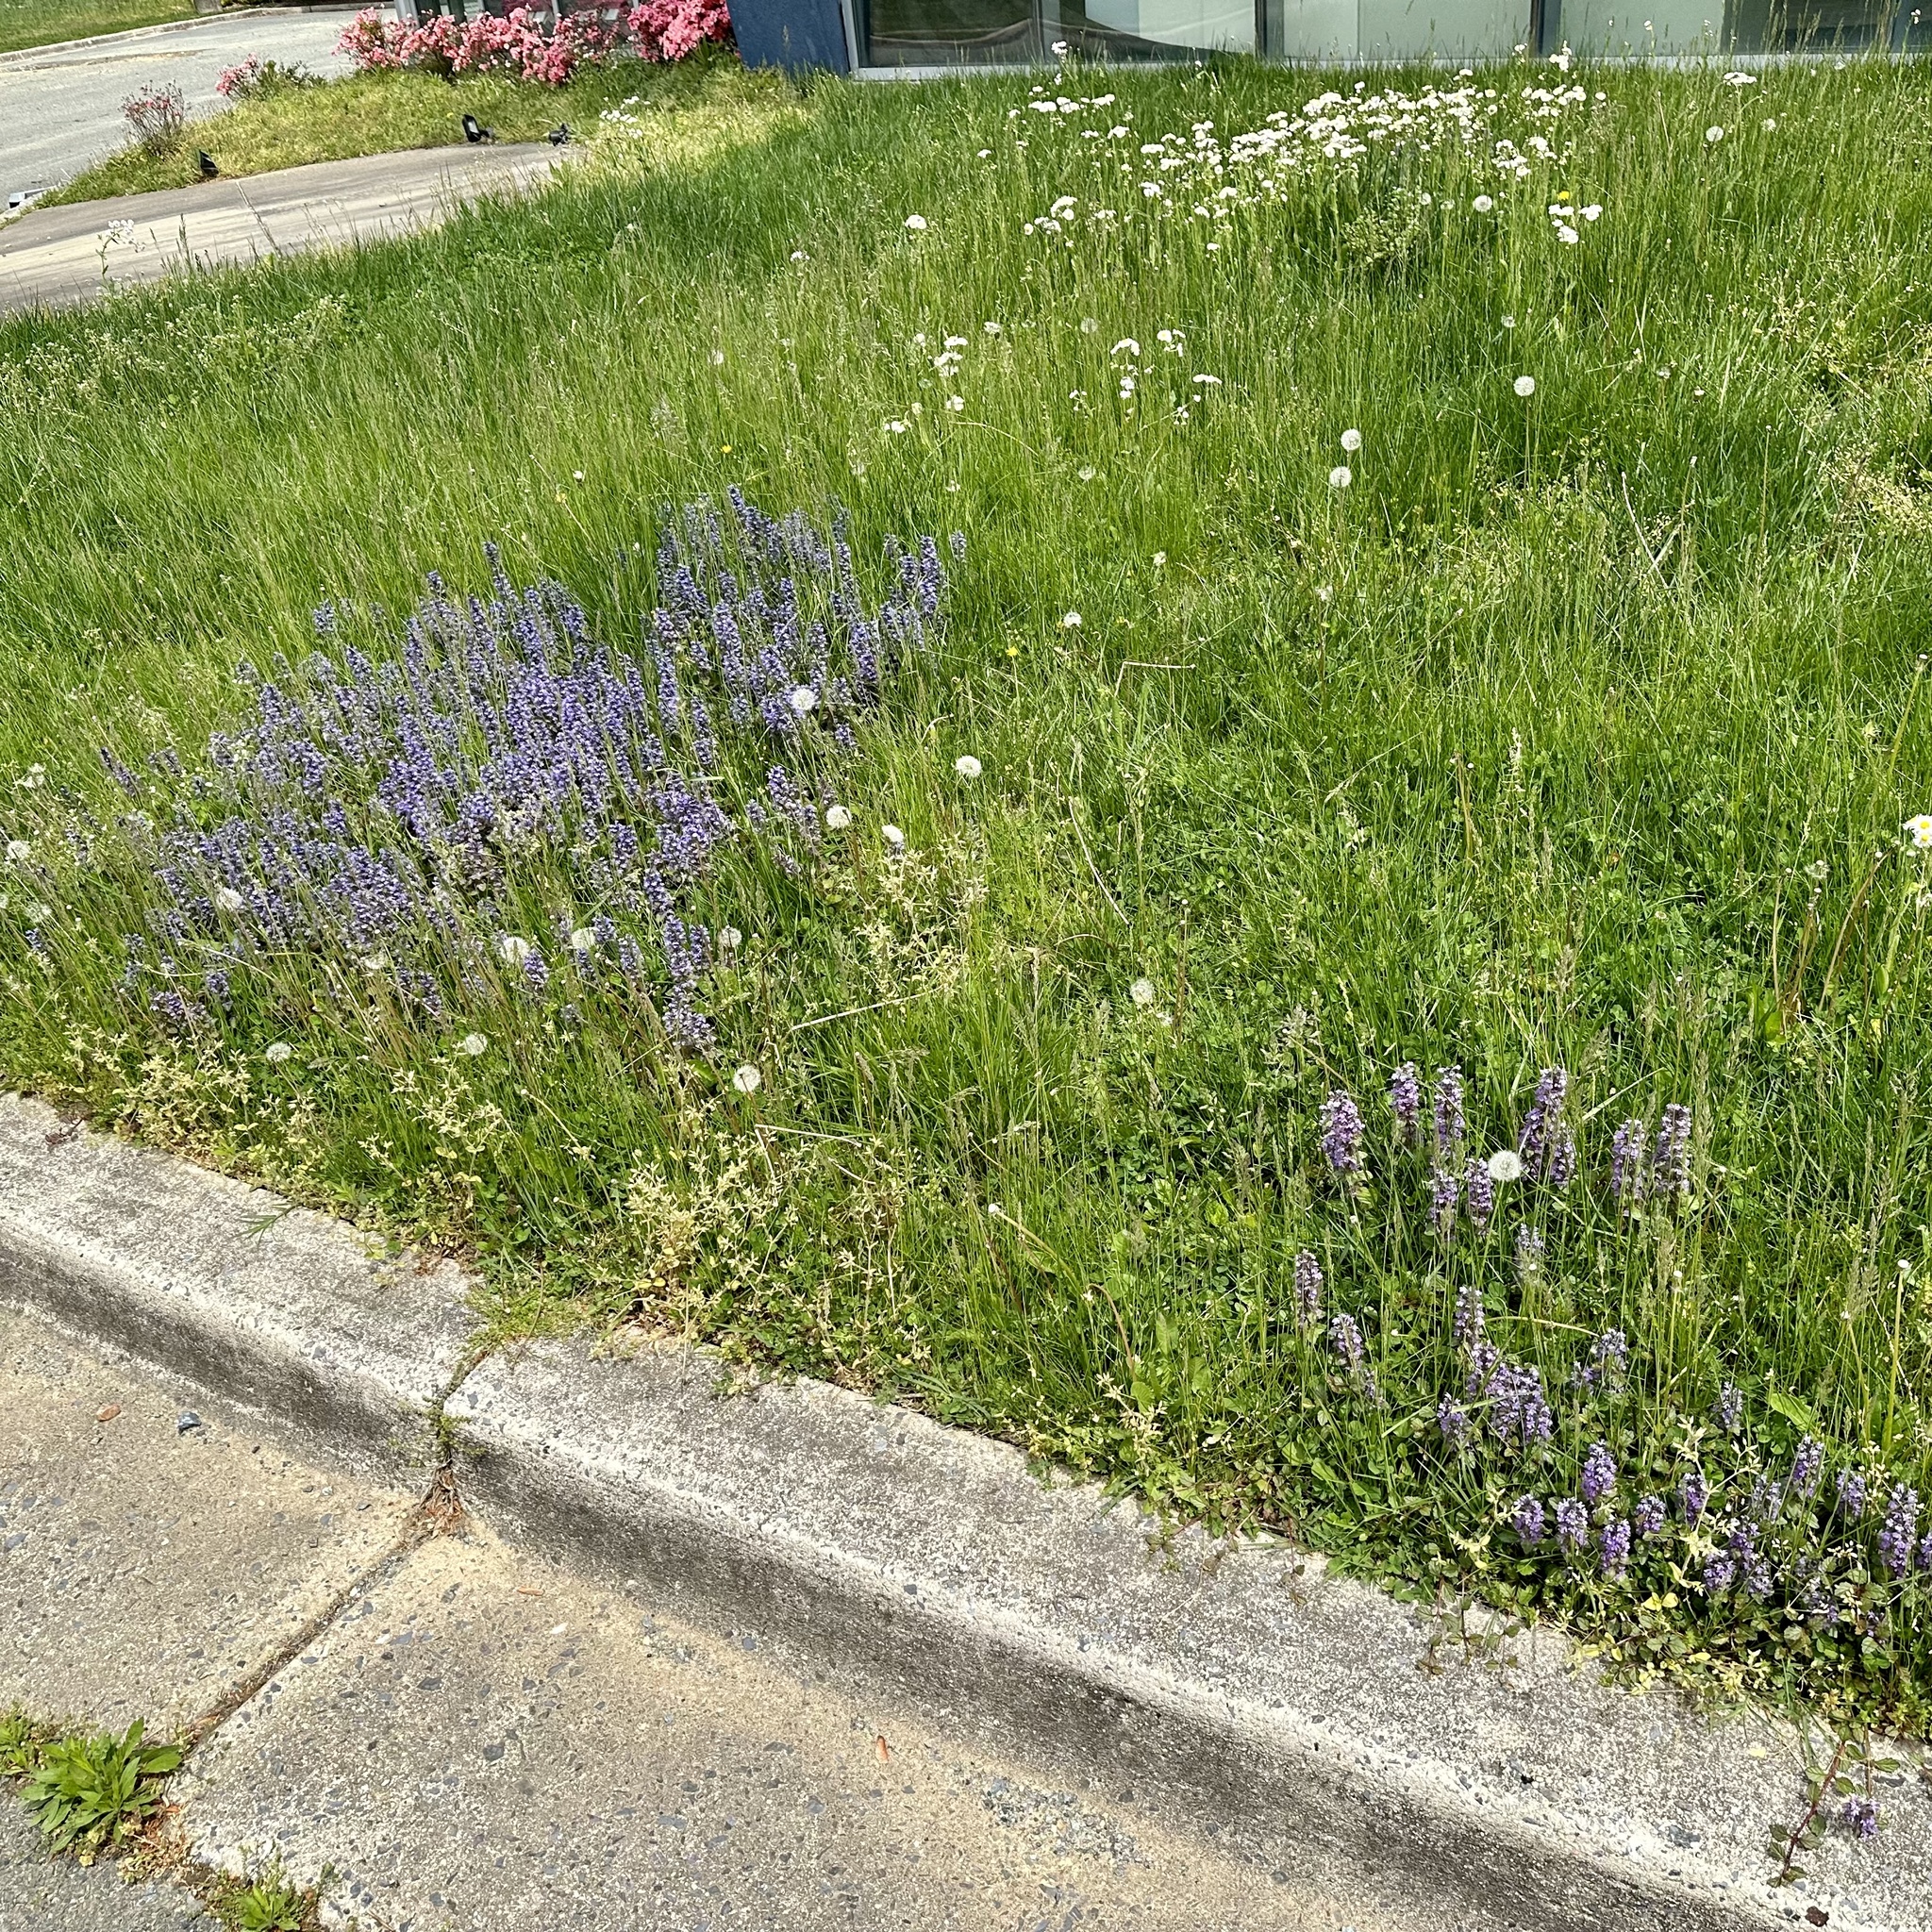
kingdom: Plantae
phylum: Tracheophyta
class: Magnoliopsida
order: Lamiales
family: Lamiaceae
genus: Ajuga
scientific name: Ajuga reptans
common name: Bugle
